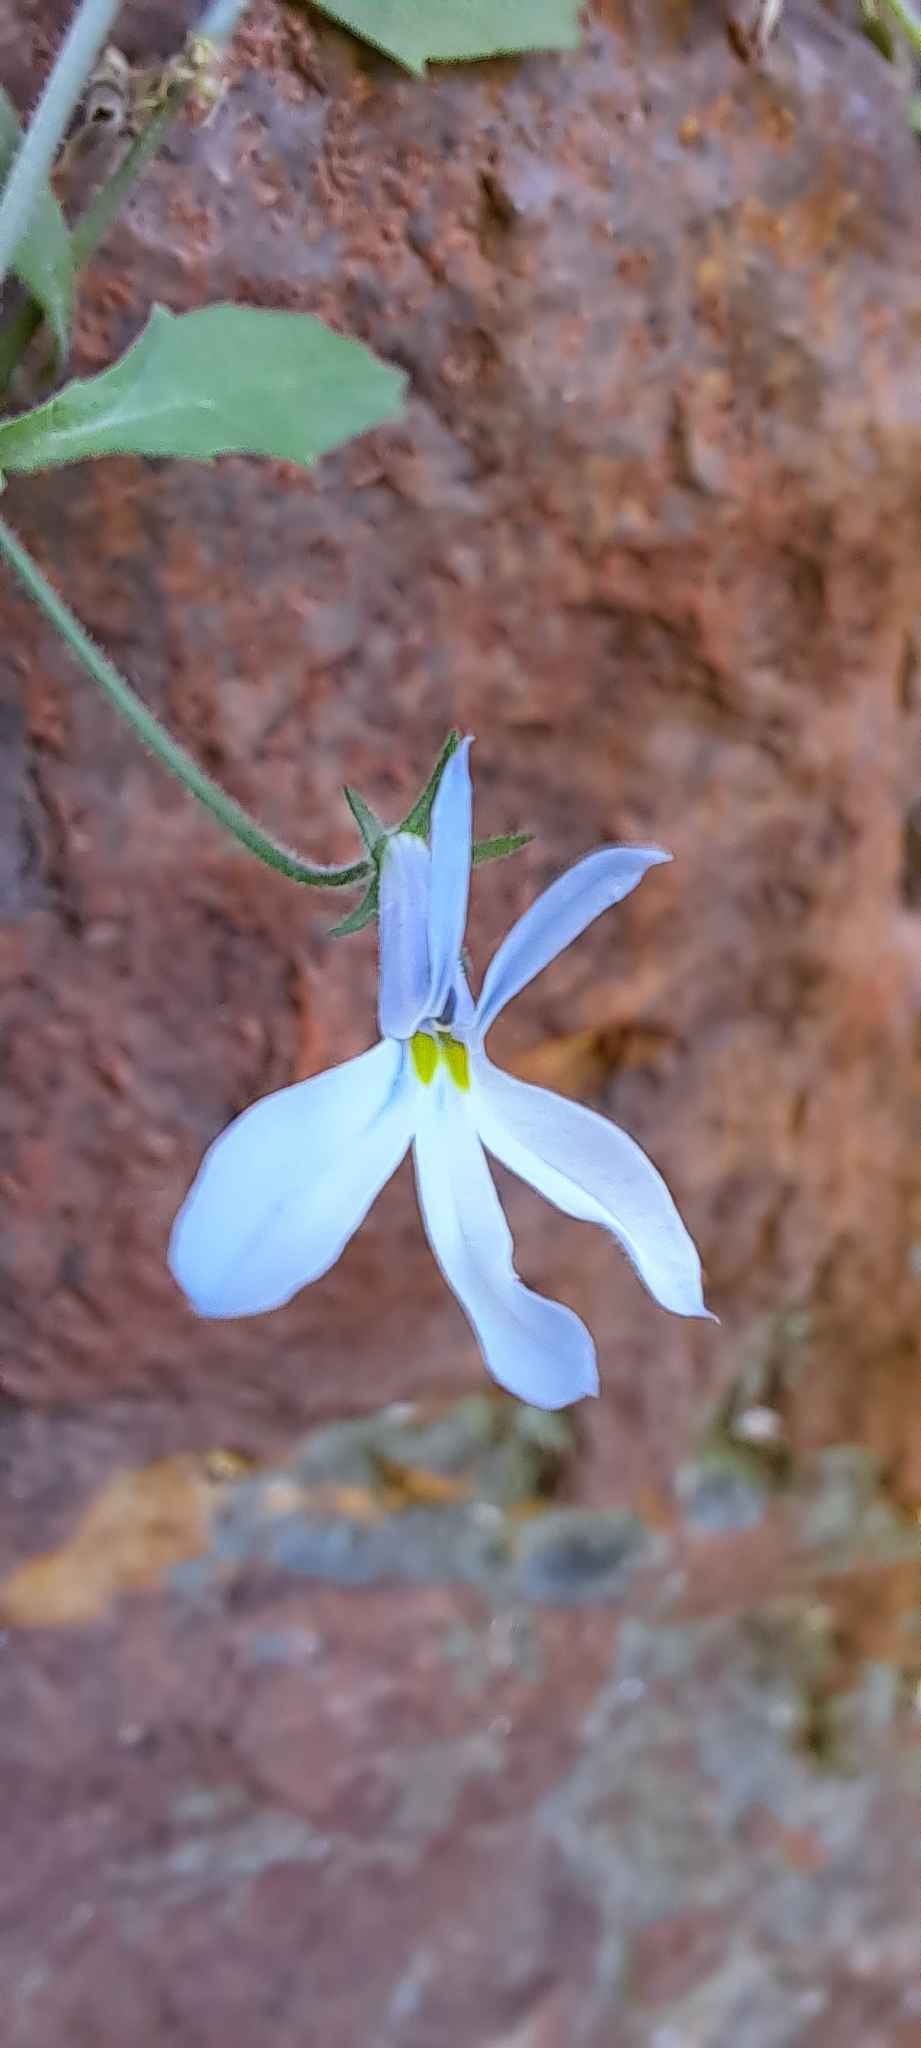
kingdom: Plantae
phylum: Tracheophyta
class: Magnoliopsida
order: Asterales
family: Campanulaceae
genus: Lobelia
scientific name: Lobelia pubescens
